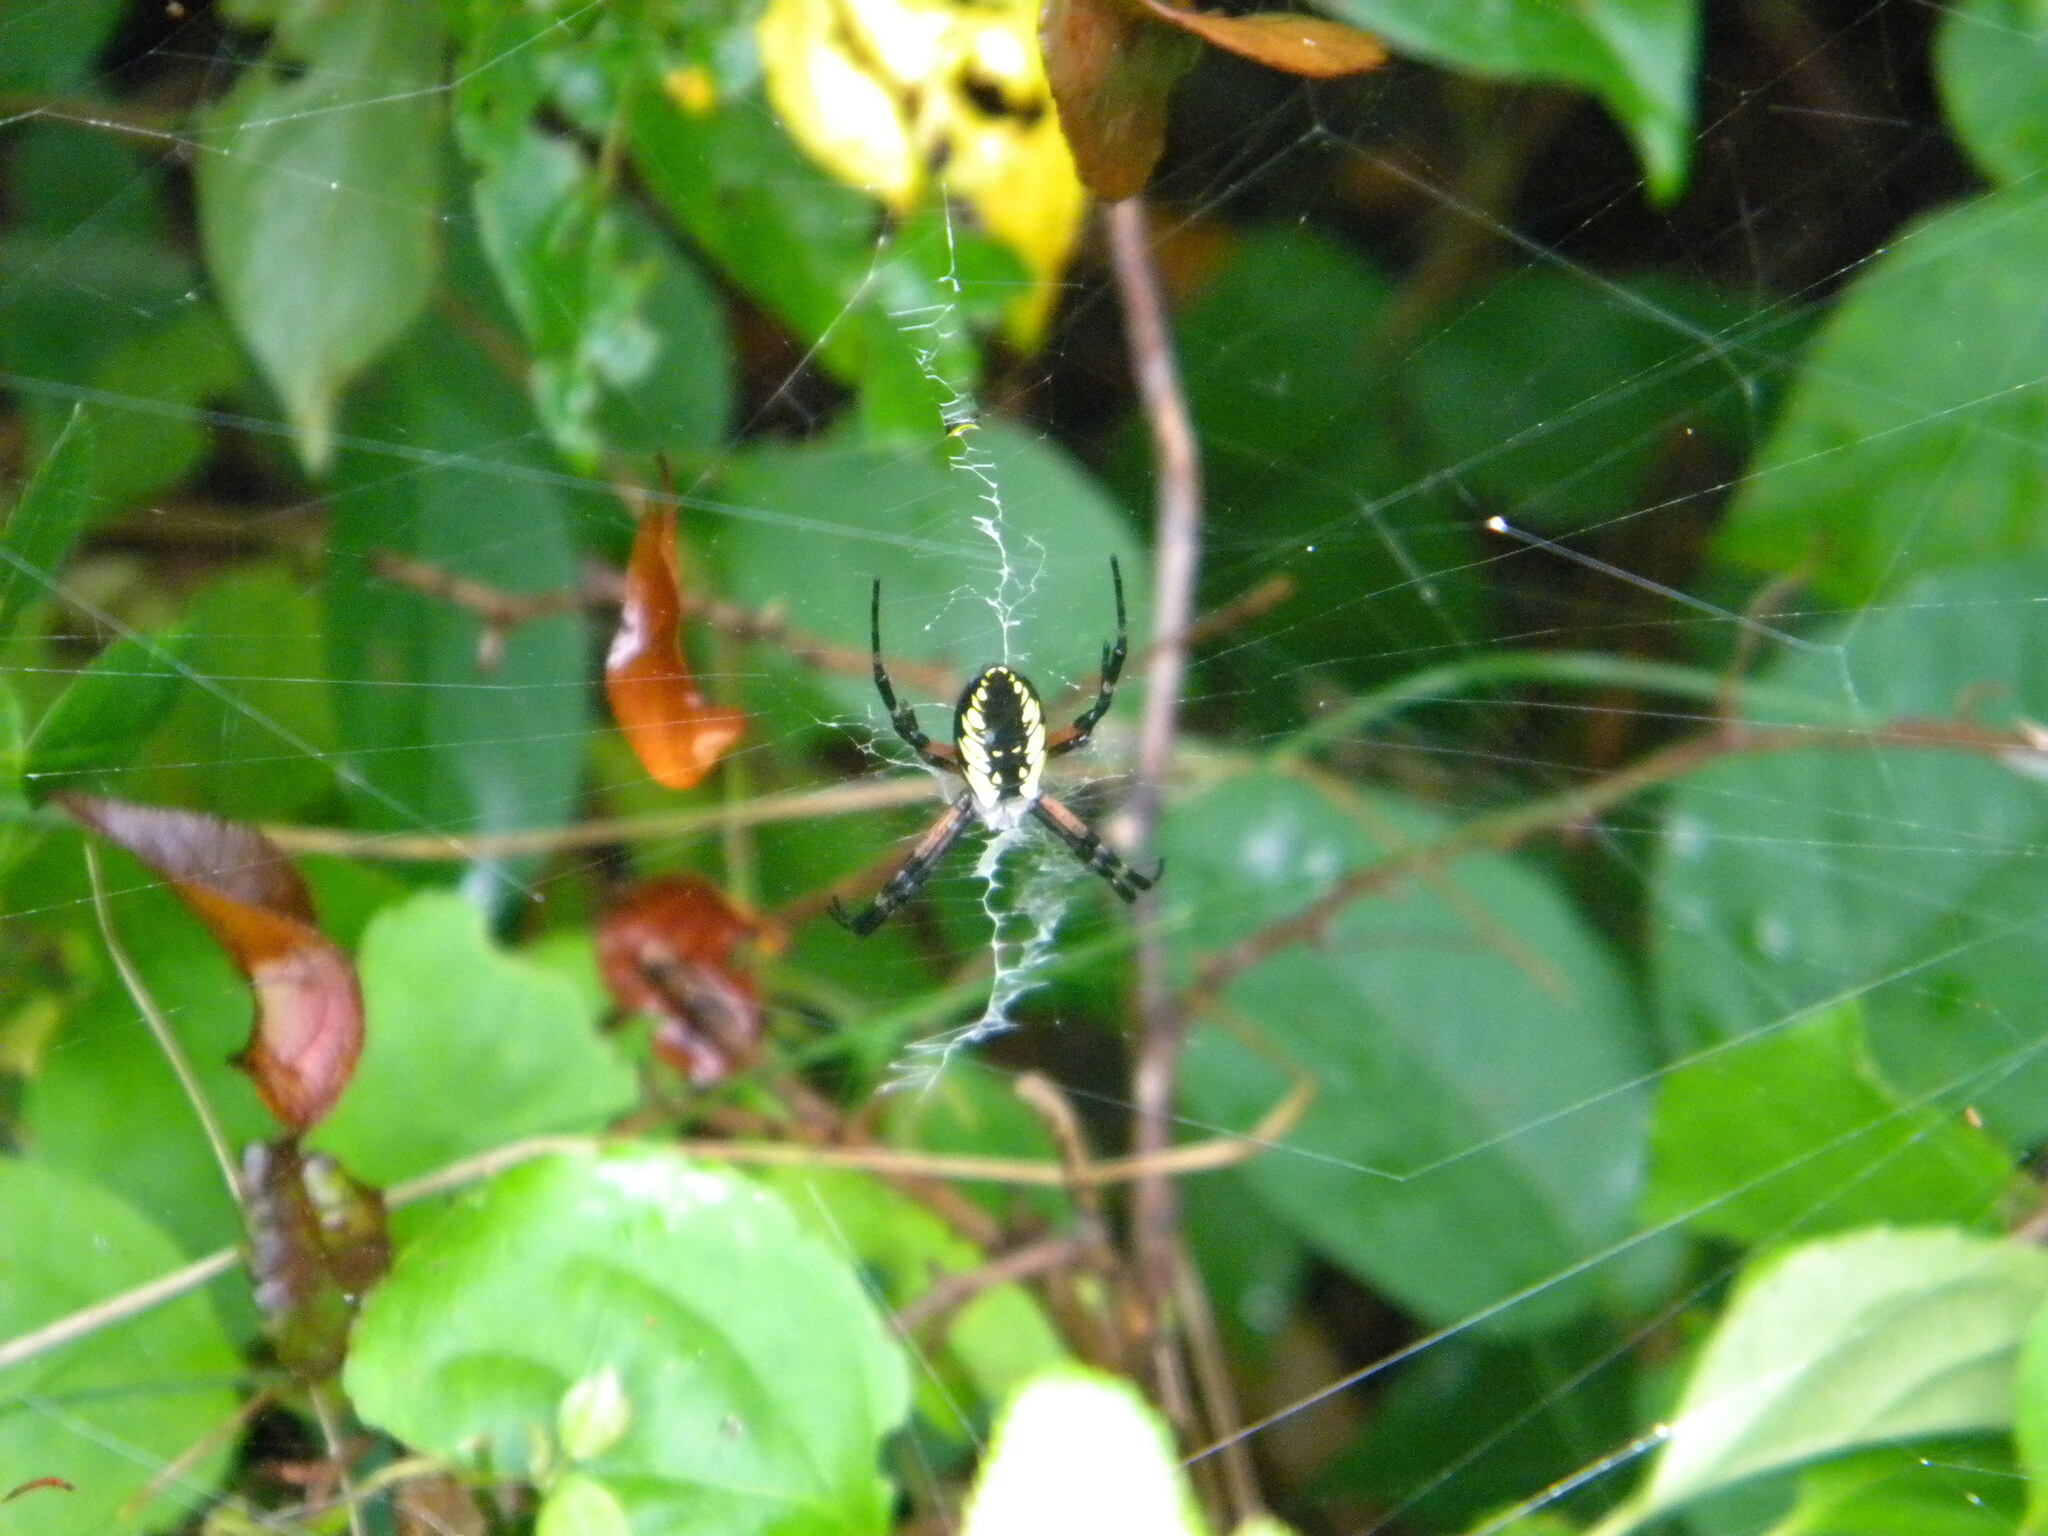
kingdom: Animalia
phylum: Arthropoda
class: Arachnida
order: Araneae
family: Araneidae
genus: Argiope
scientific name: Argiope aurantia
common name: Orb weavers
